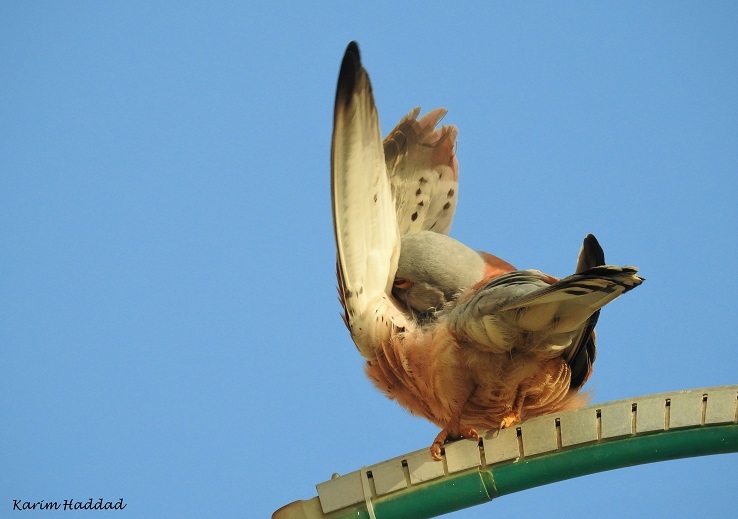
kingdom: Animalia
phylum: Chordata
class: Aves
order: Falconiformes
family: Falconidae
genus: Falco
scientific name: Falco naumanni
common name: Lesser kestrel
